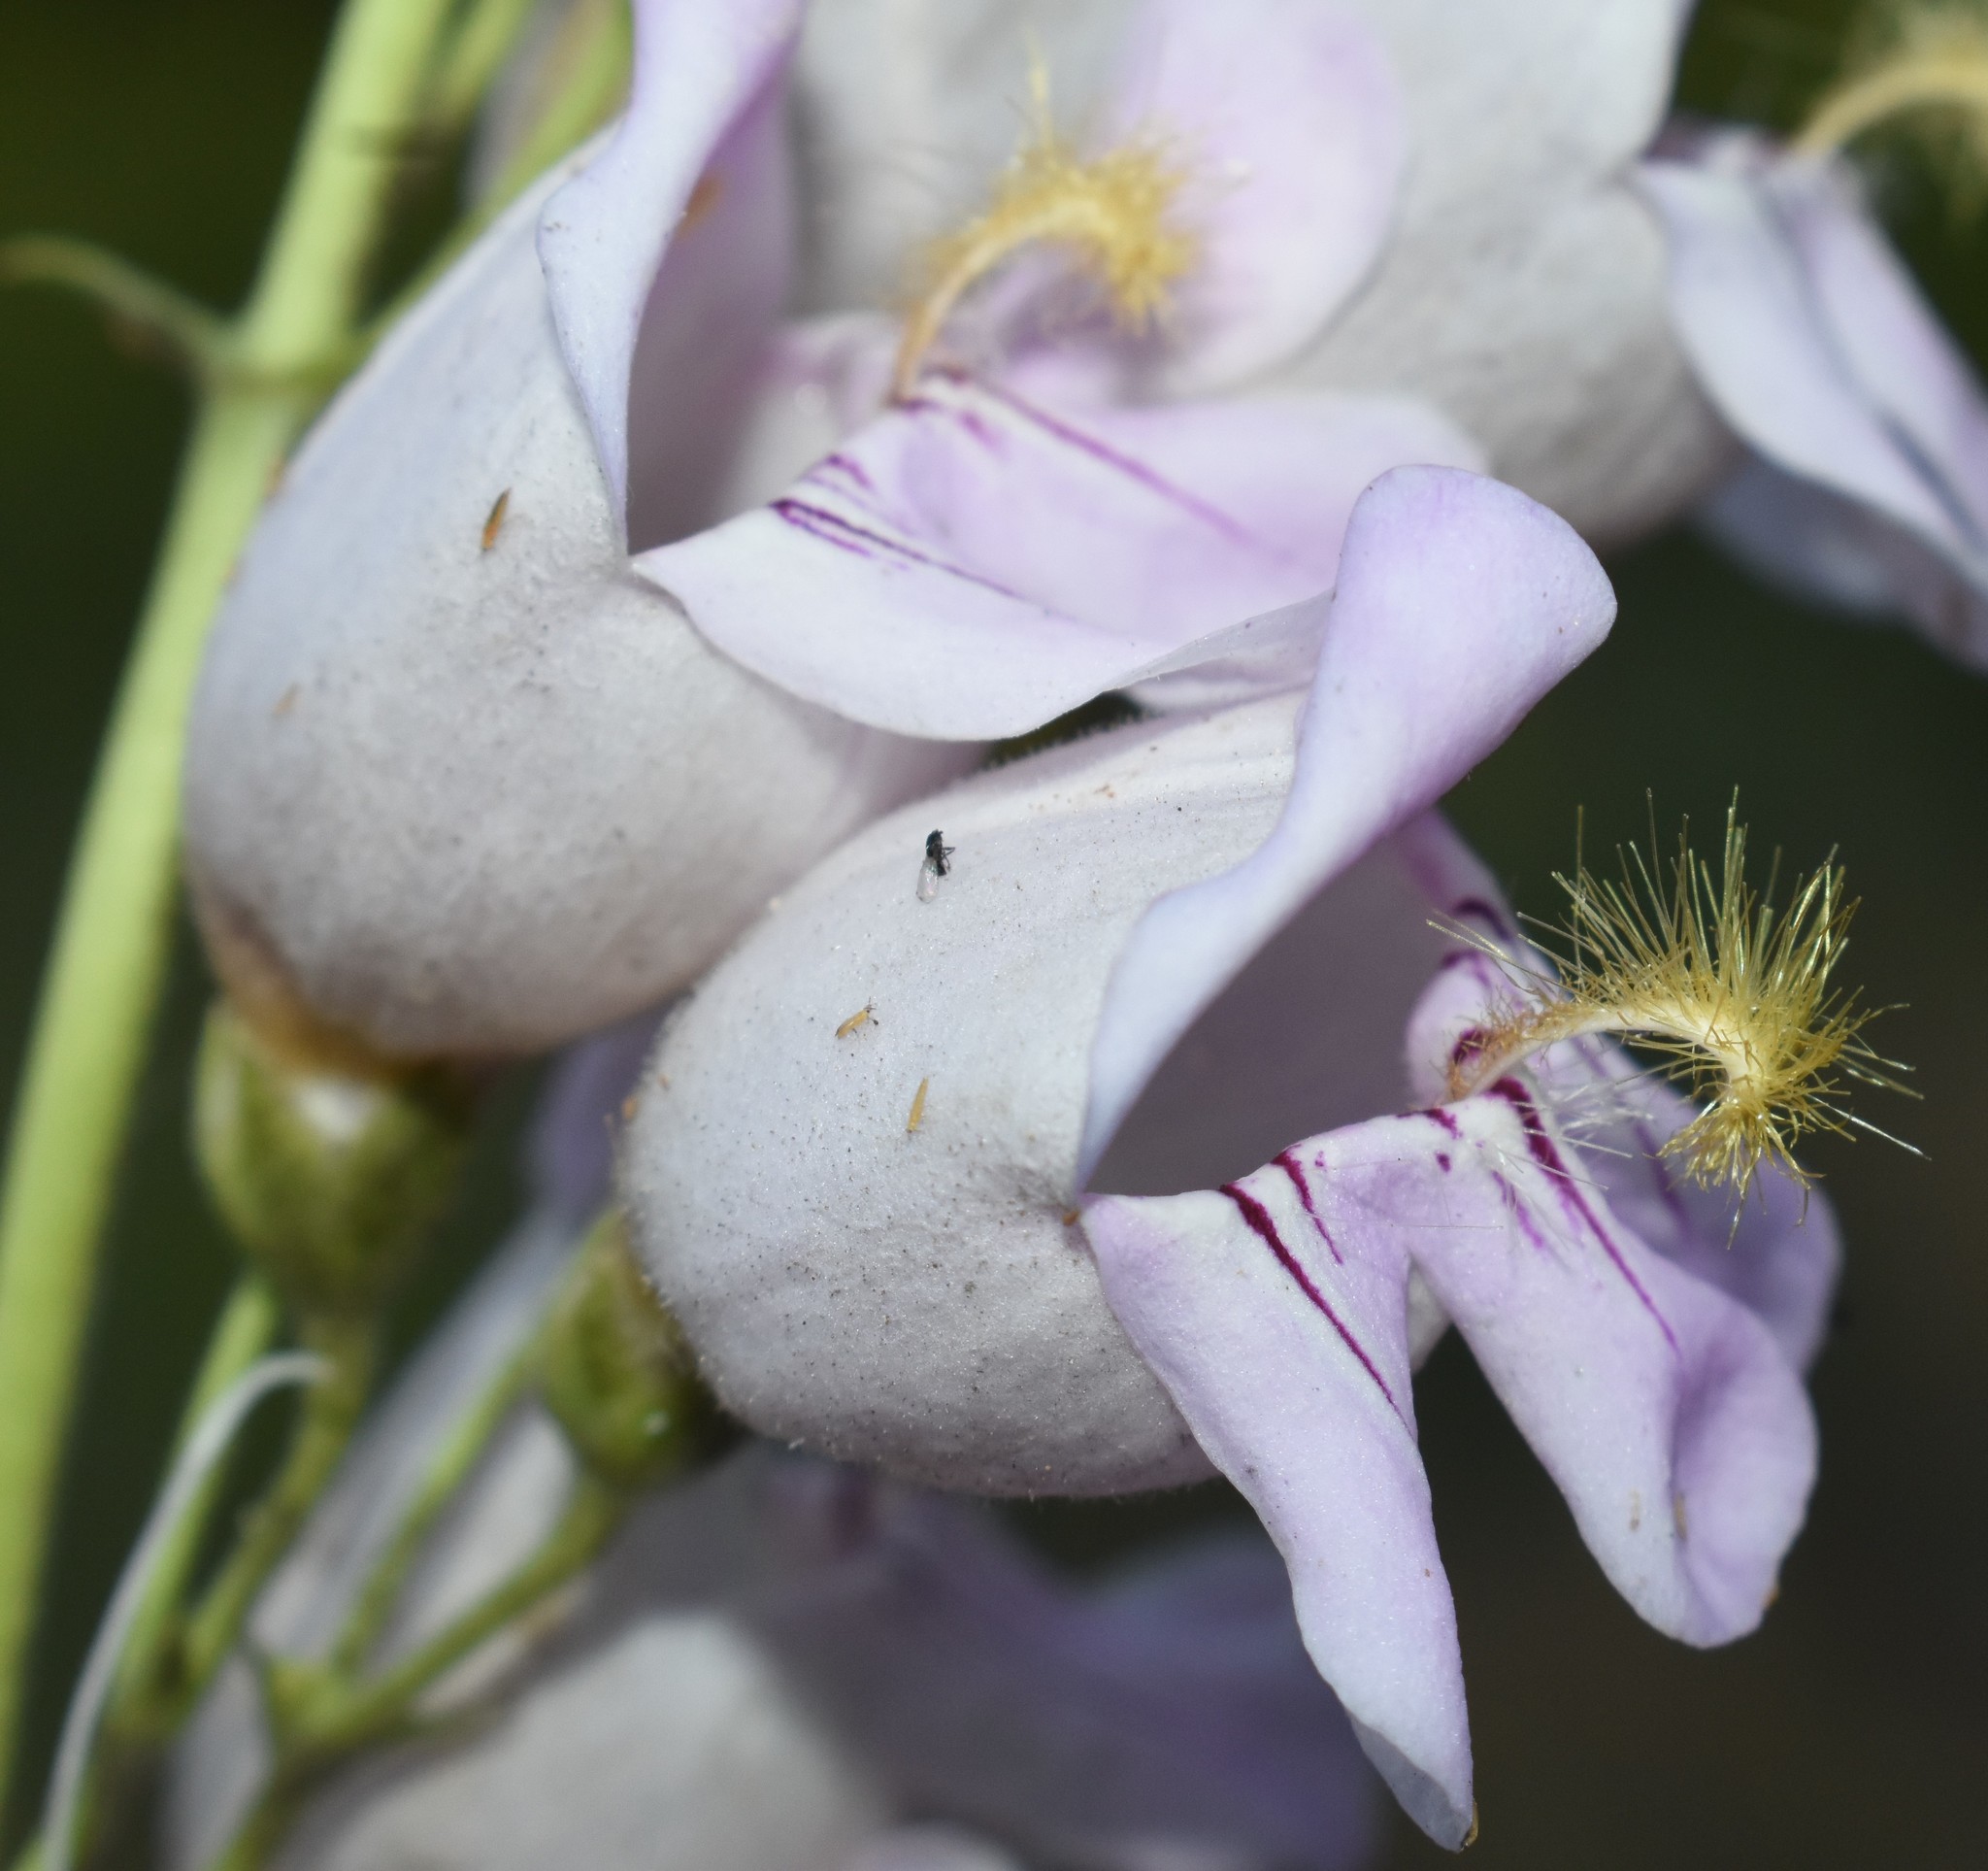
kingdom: Plantae
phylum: Tracheophyta
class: Magnoliopsida
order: Lamiales
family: Plantaginaceae
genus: Penstemon
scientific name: Penstemon palmeri
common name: Palmer penstemon
